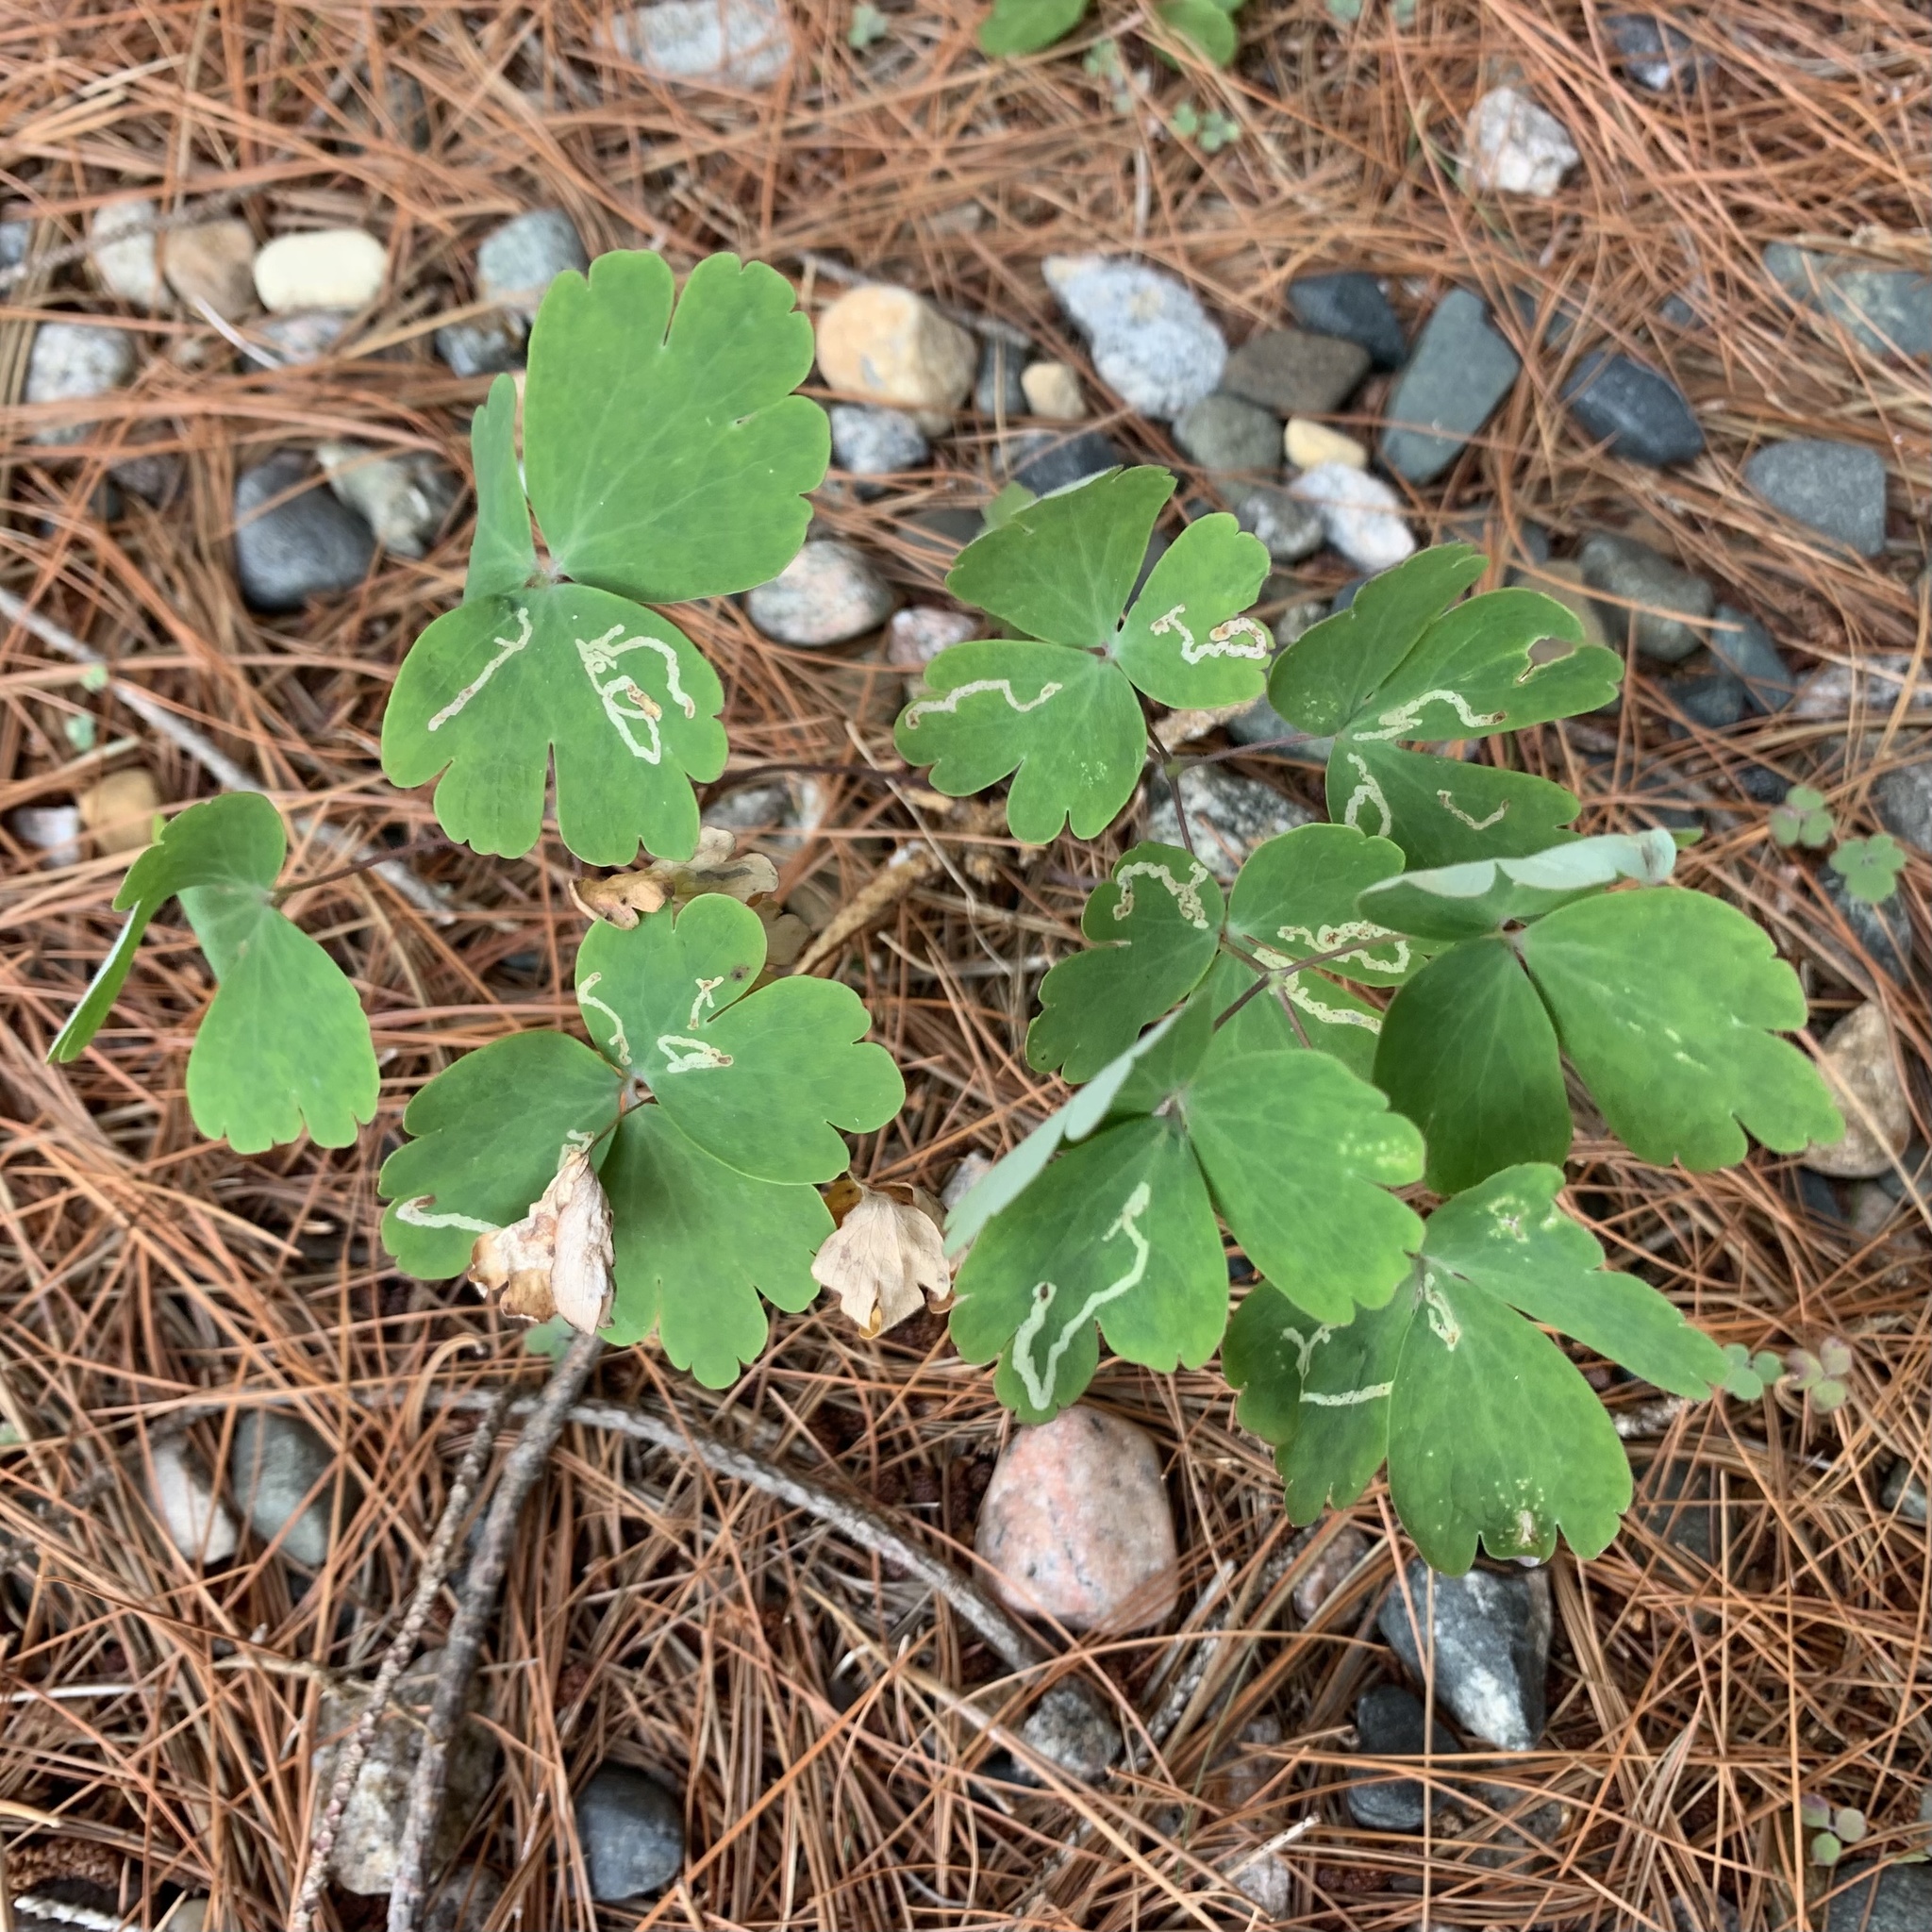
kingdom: Plantae
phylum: Tracheophyta
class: Magnoliopsida
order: Ranunculales
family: Ranunculaceae
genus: Aquilegia
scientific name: Aquilegia canadensis
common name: American columbine
